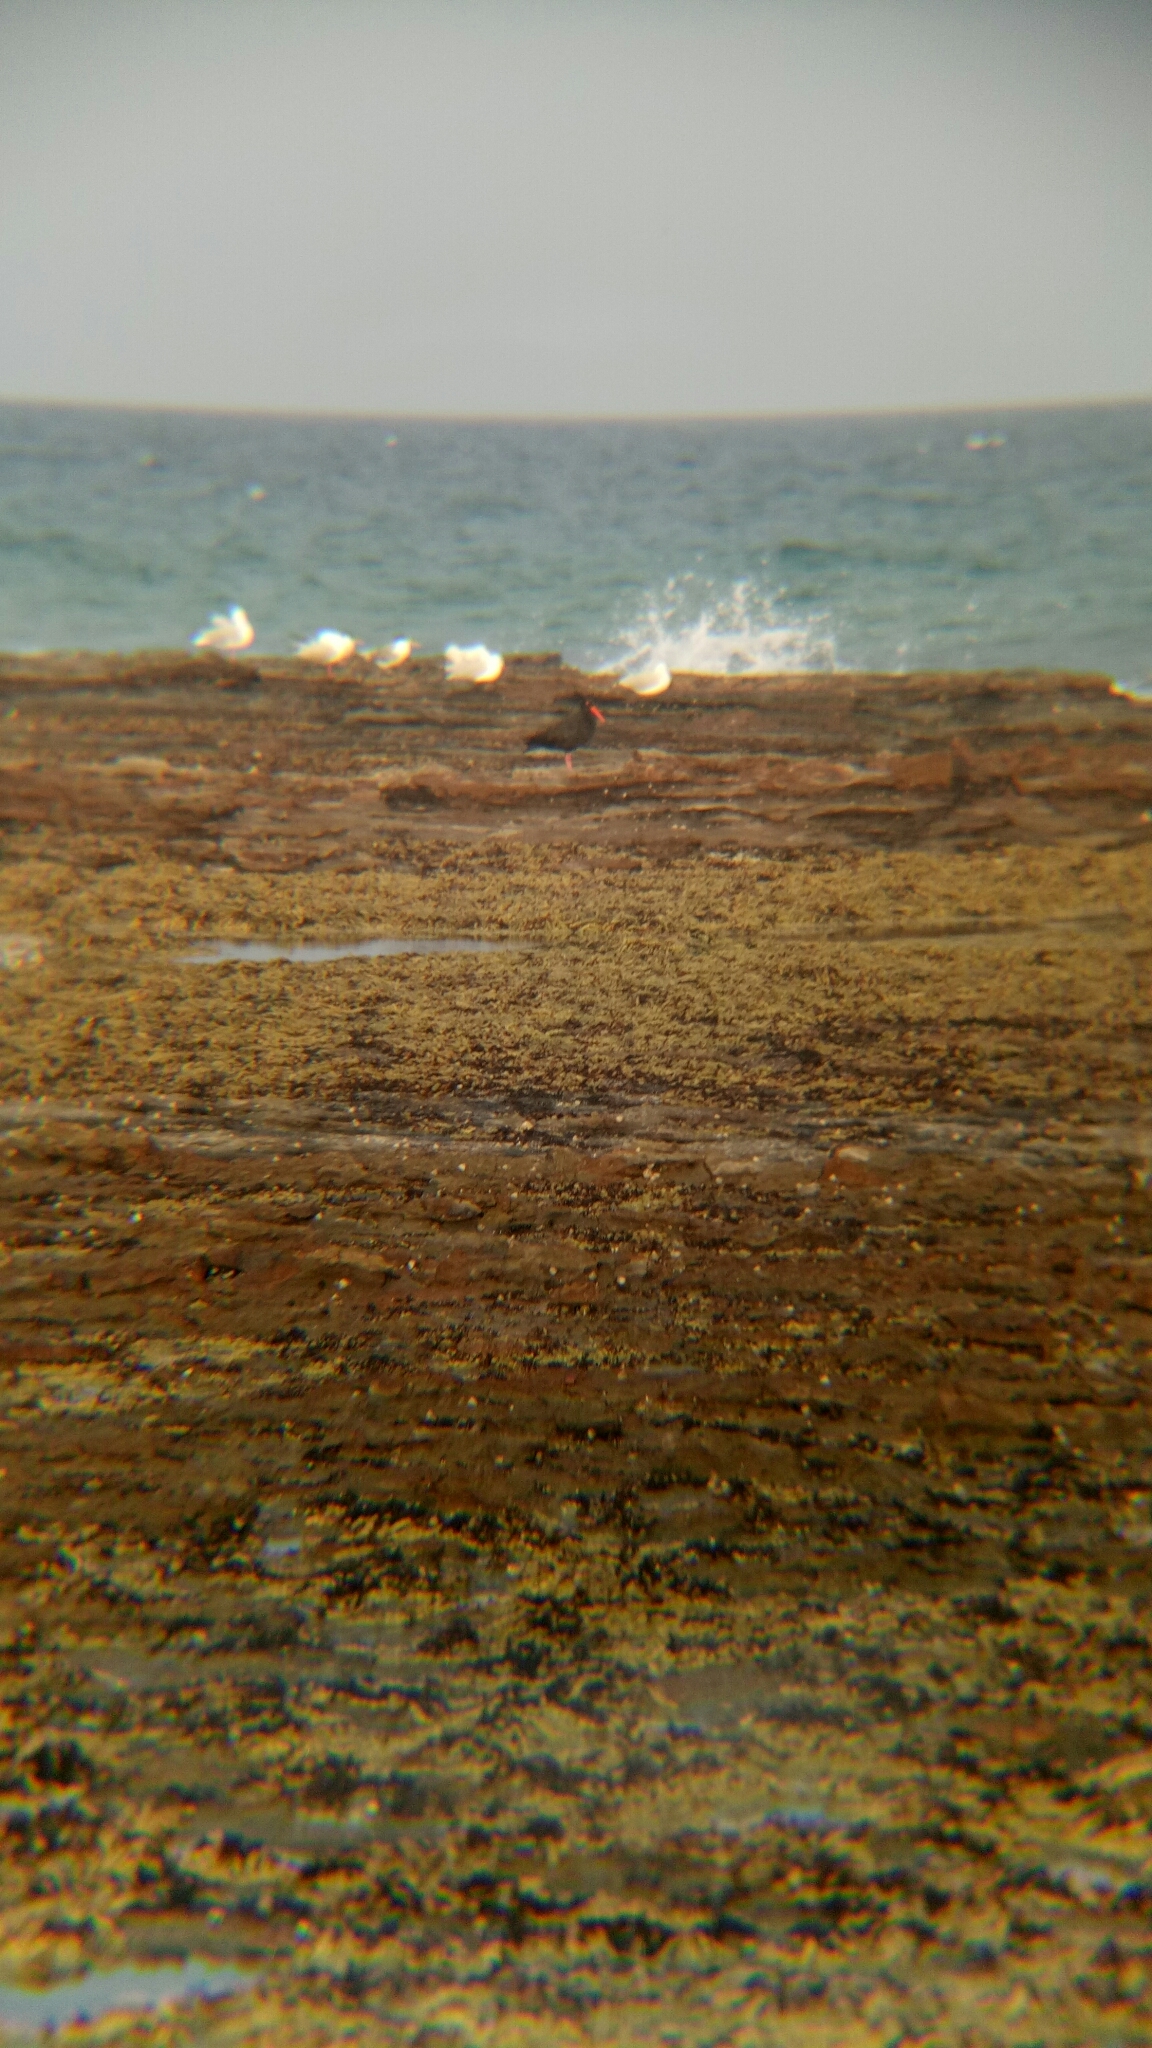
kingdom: Animalia
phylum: Chordata
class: Aves
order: Charadriiformes
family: Haematopodidae
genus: Haematopus
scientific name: Haematopus fuliginosus
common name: Sooty oystercatcher
